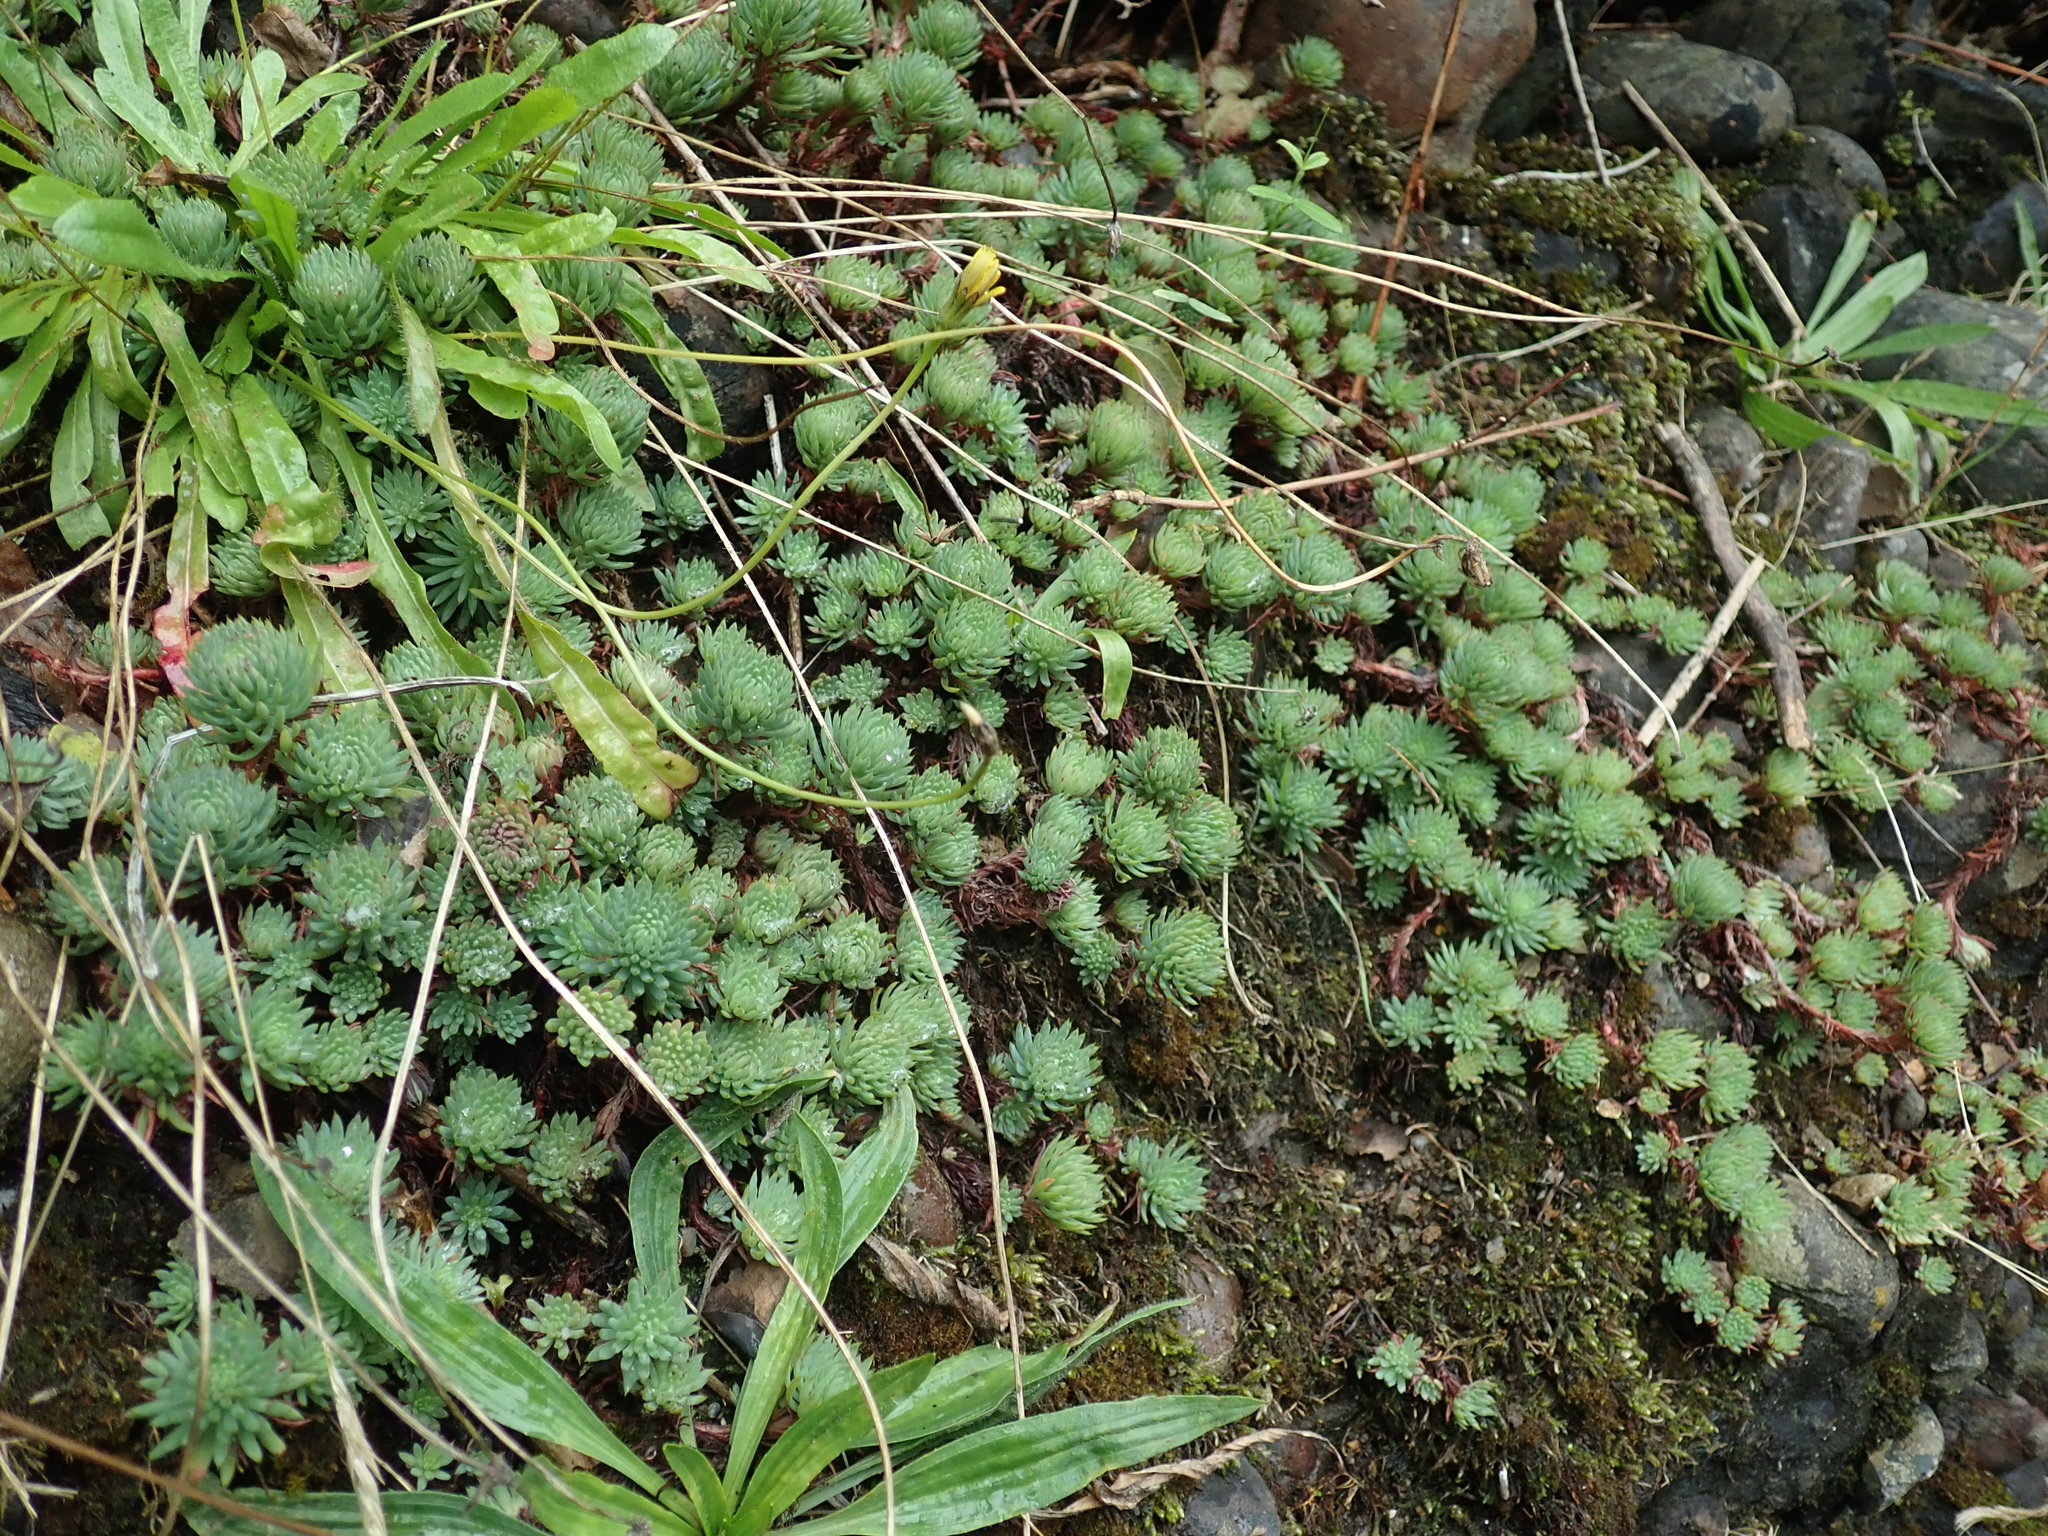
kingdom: Plantae
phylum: Tracheophyta
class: Magnoliopsida
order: Saxifragales
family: Crassulaceae
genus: Petrosedum
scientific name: Petrosedum forsterianum
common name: Forster's stonecrop
